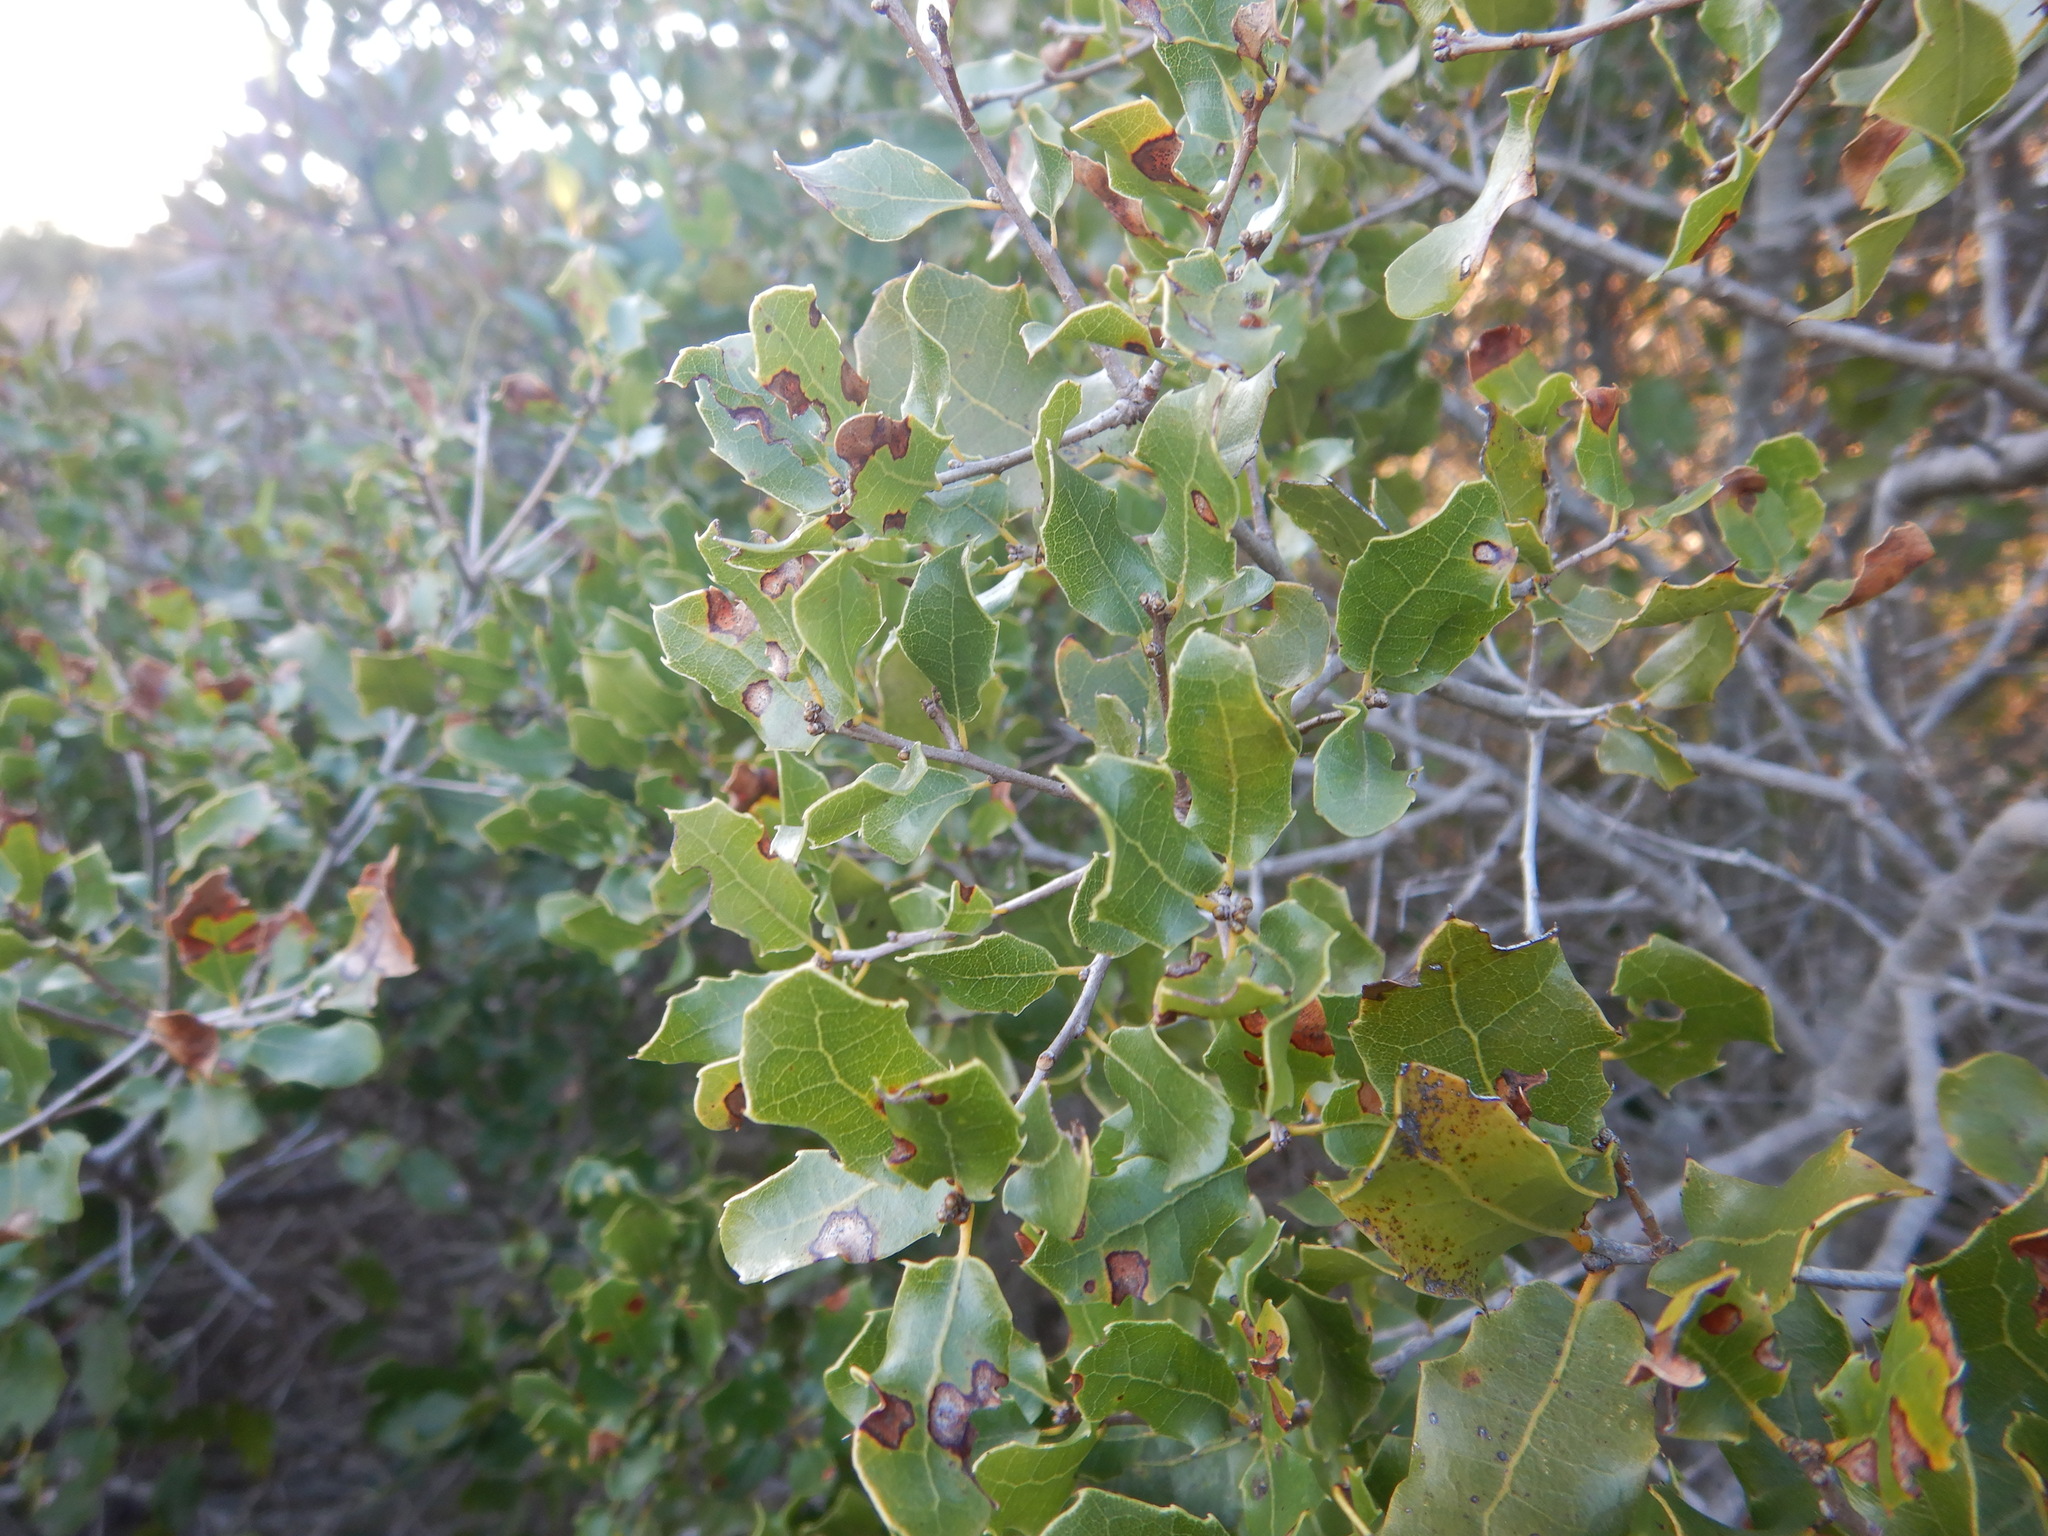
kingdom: Plantae
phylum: Tracheophyta
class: Magnoliopsida
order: Fagales
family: Fagaceae
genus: Quercus
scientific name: Quercus coccifera
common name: Kermes oak
